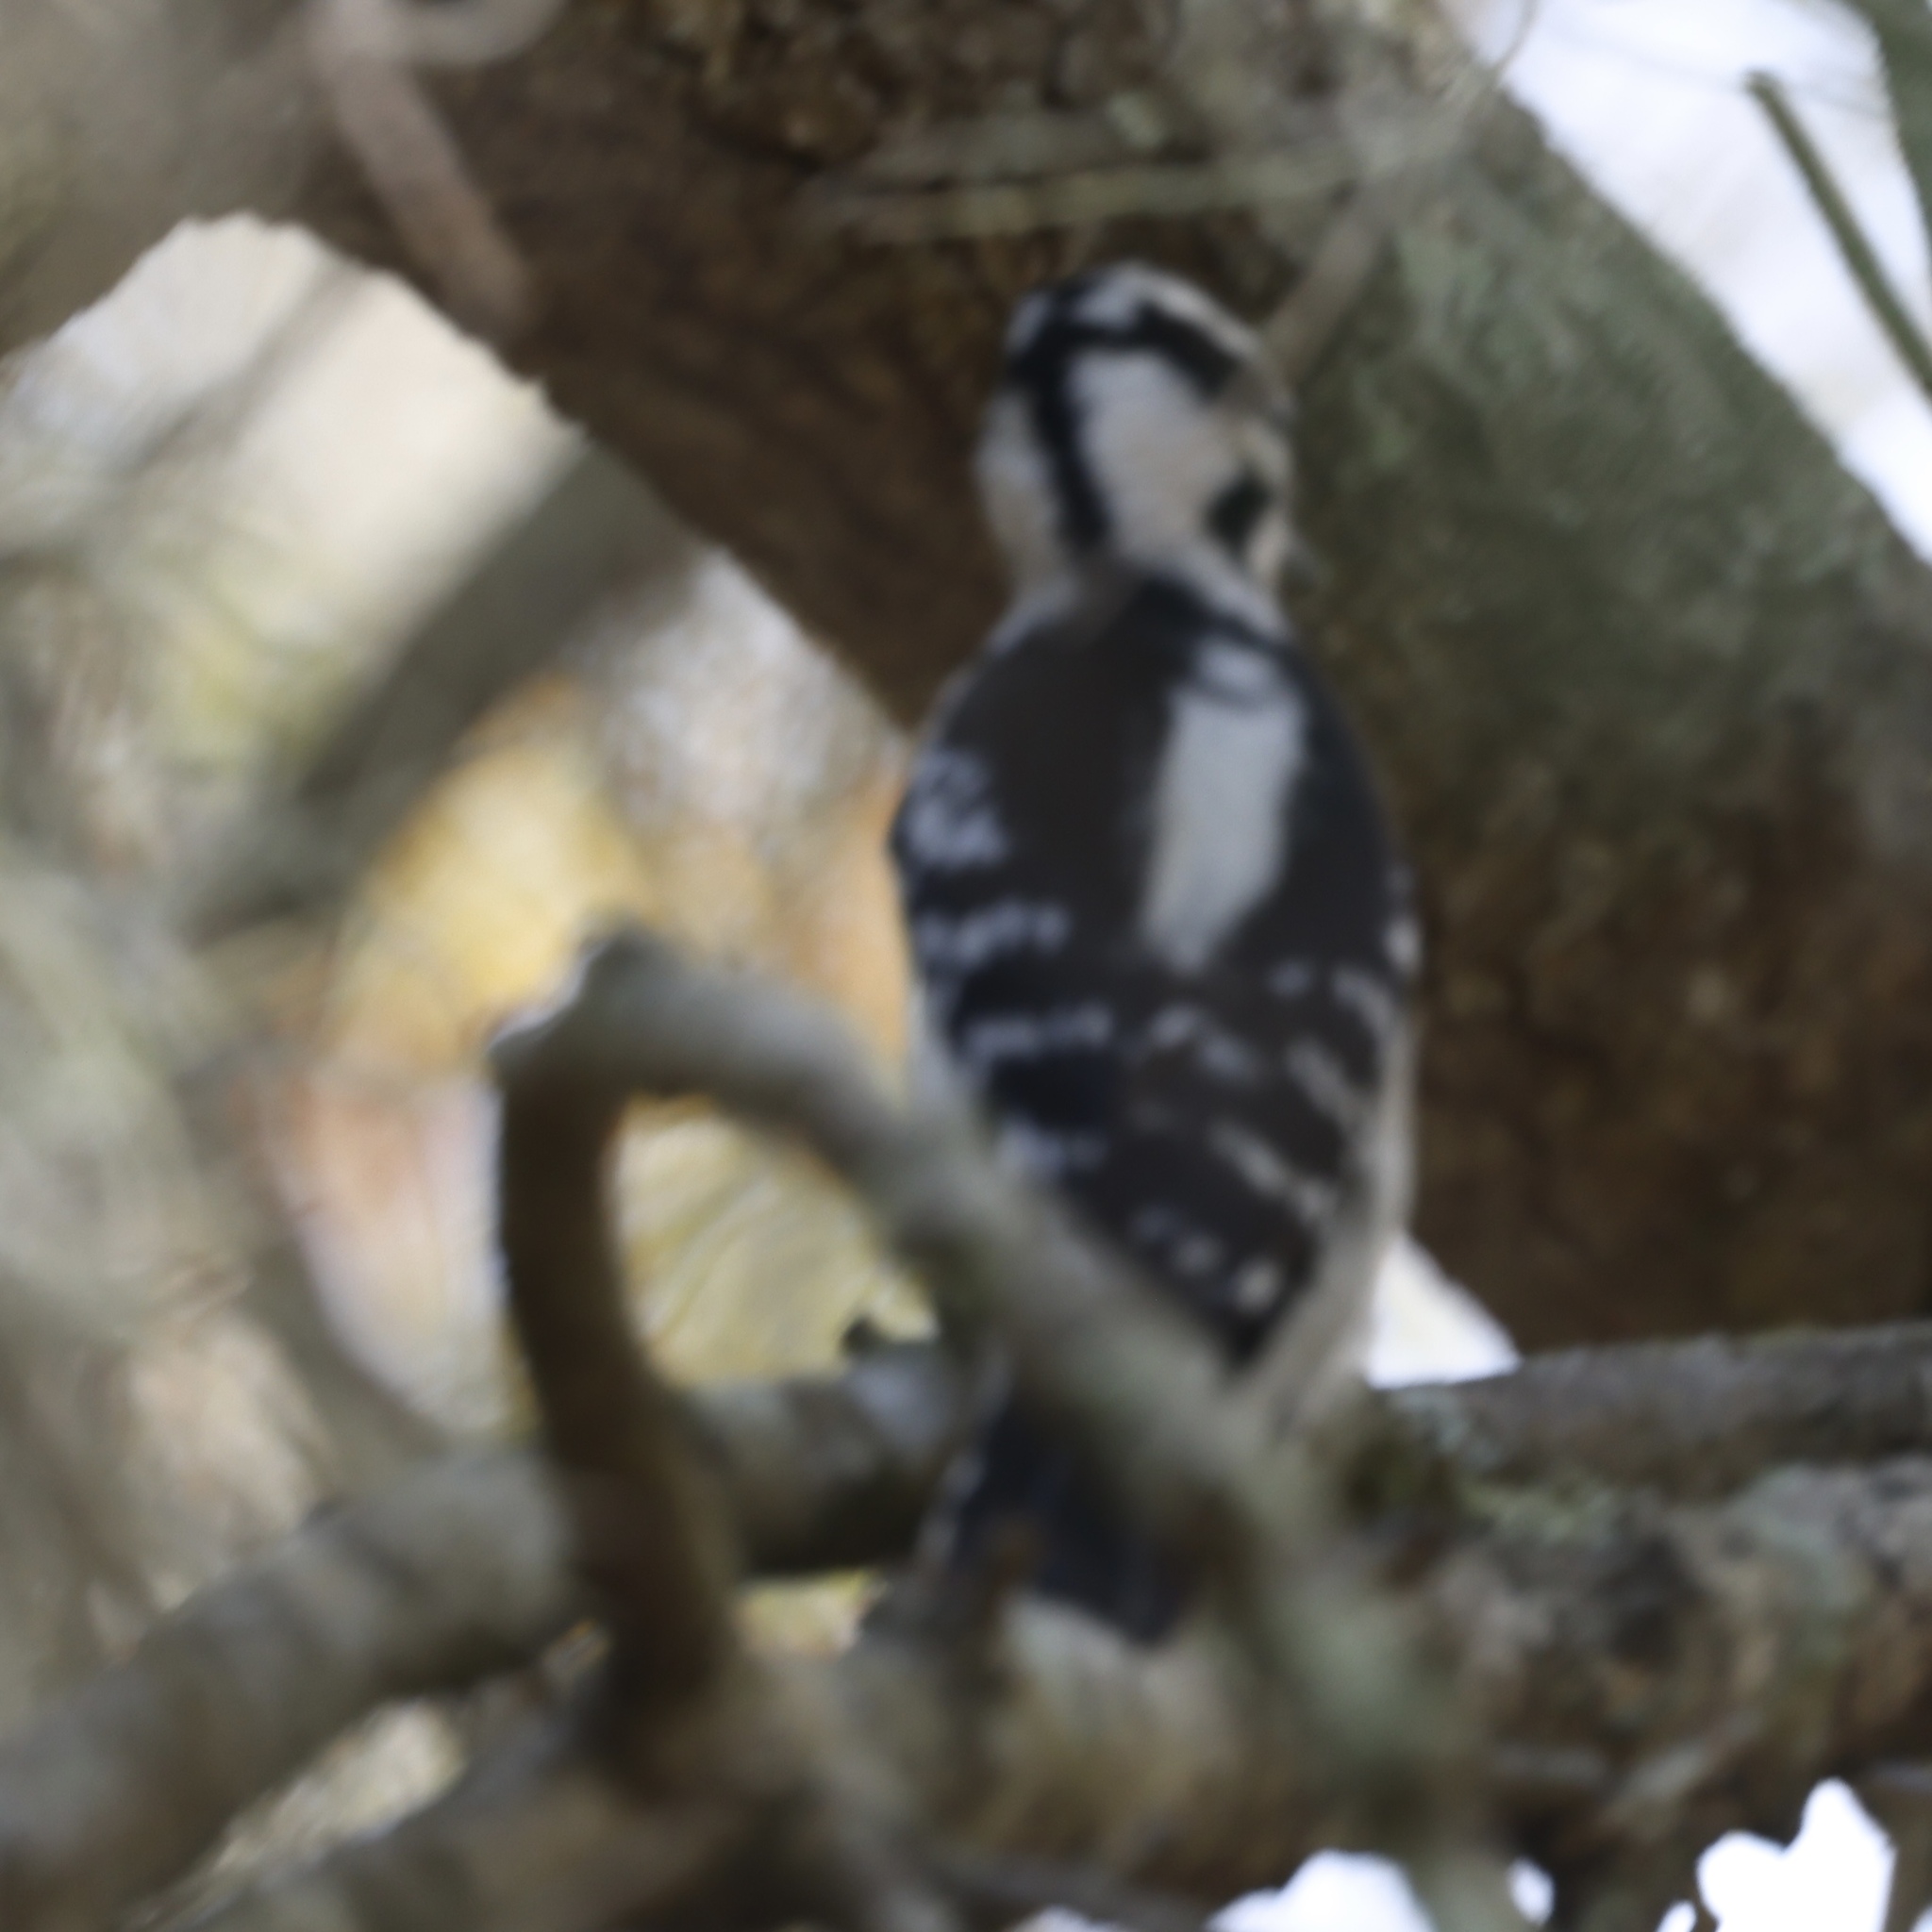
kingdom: Animalia
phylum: Chordata
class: Aves
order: Piciformes
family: Picidae
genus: Dryobates
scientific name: Dryobates pubescens
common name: Downy woodpecker
